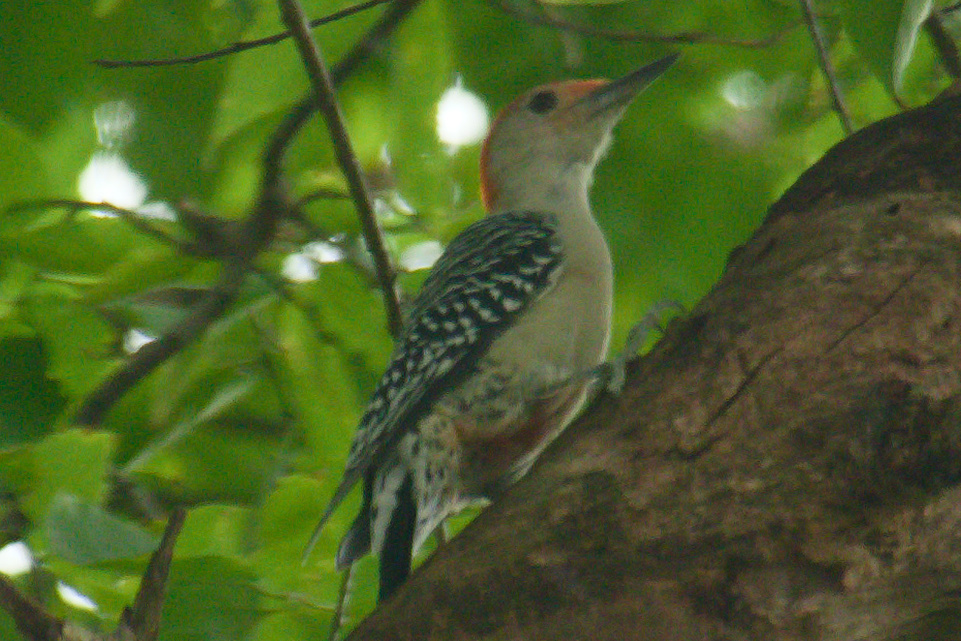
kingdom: Animalia
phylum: Chordata
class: Aves
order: Piciformes
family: Picidae
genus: Melanerpes
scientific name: Melanerpes carolinus
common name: Red-bellied woodpecker
